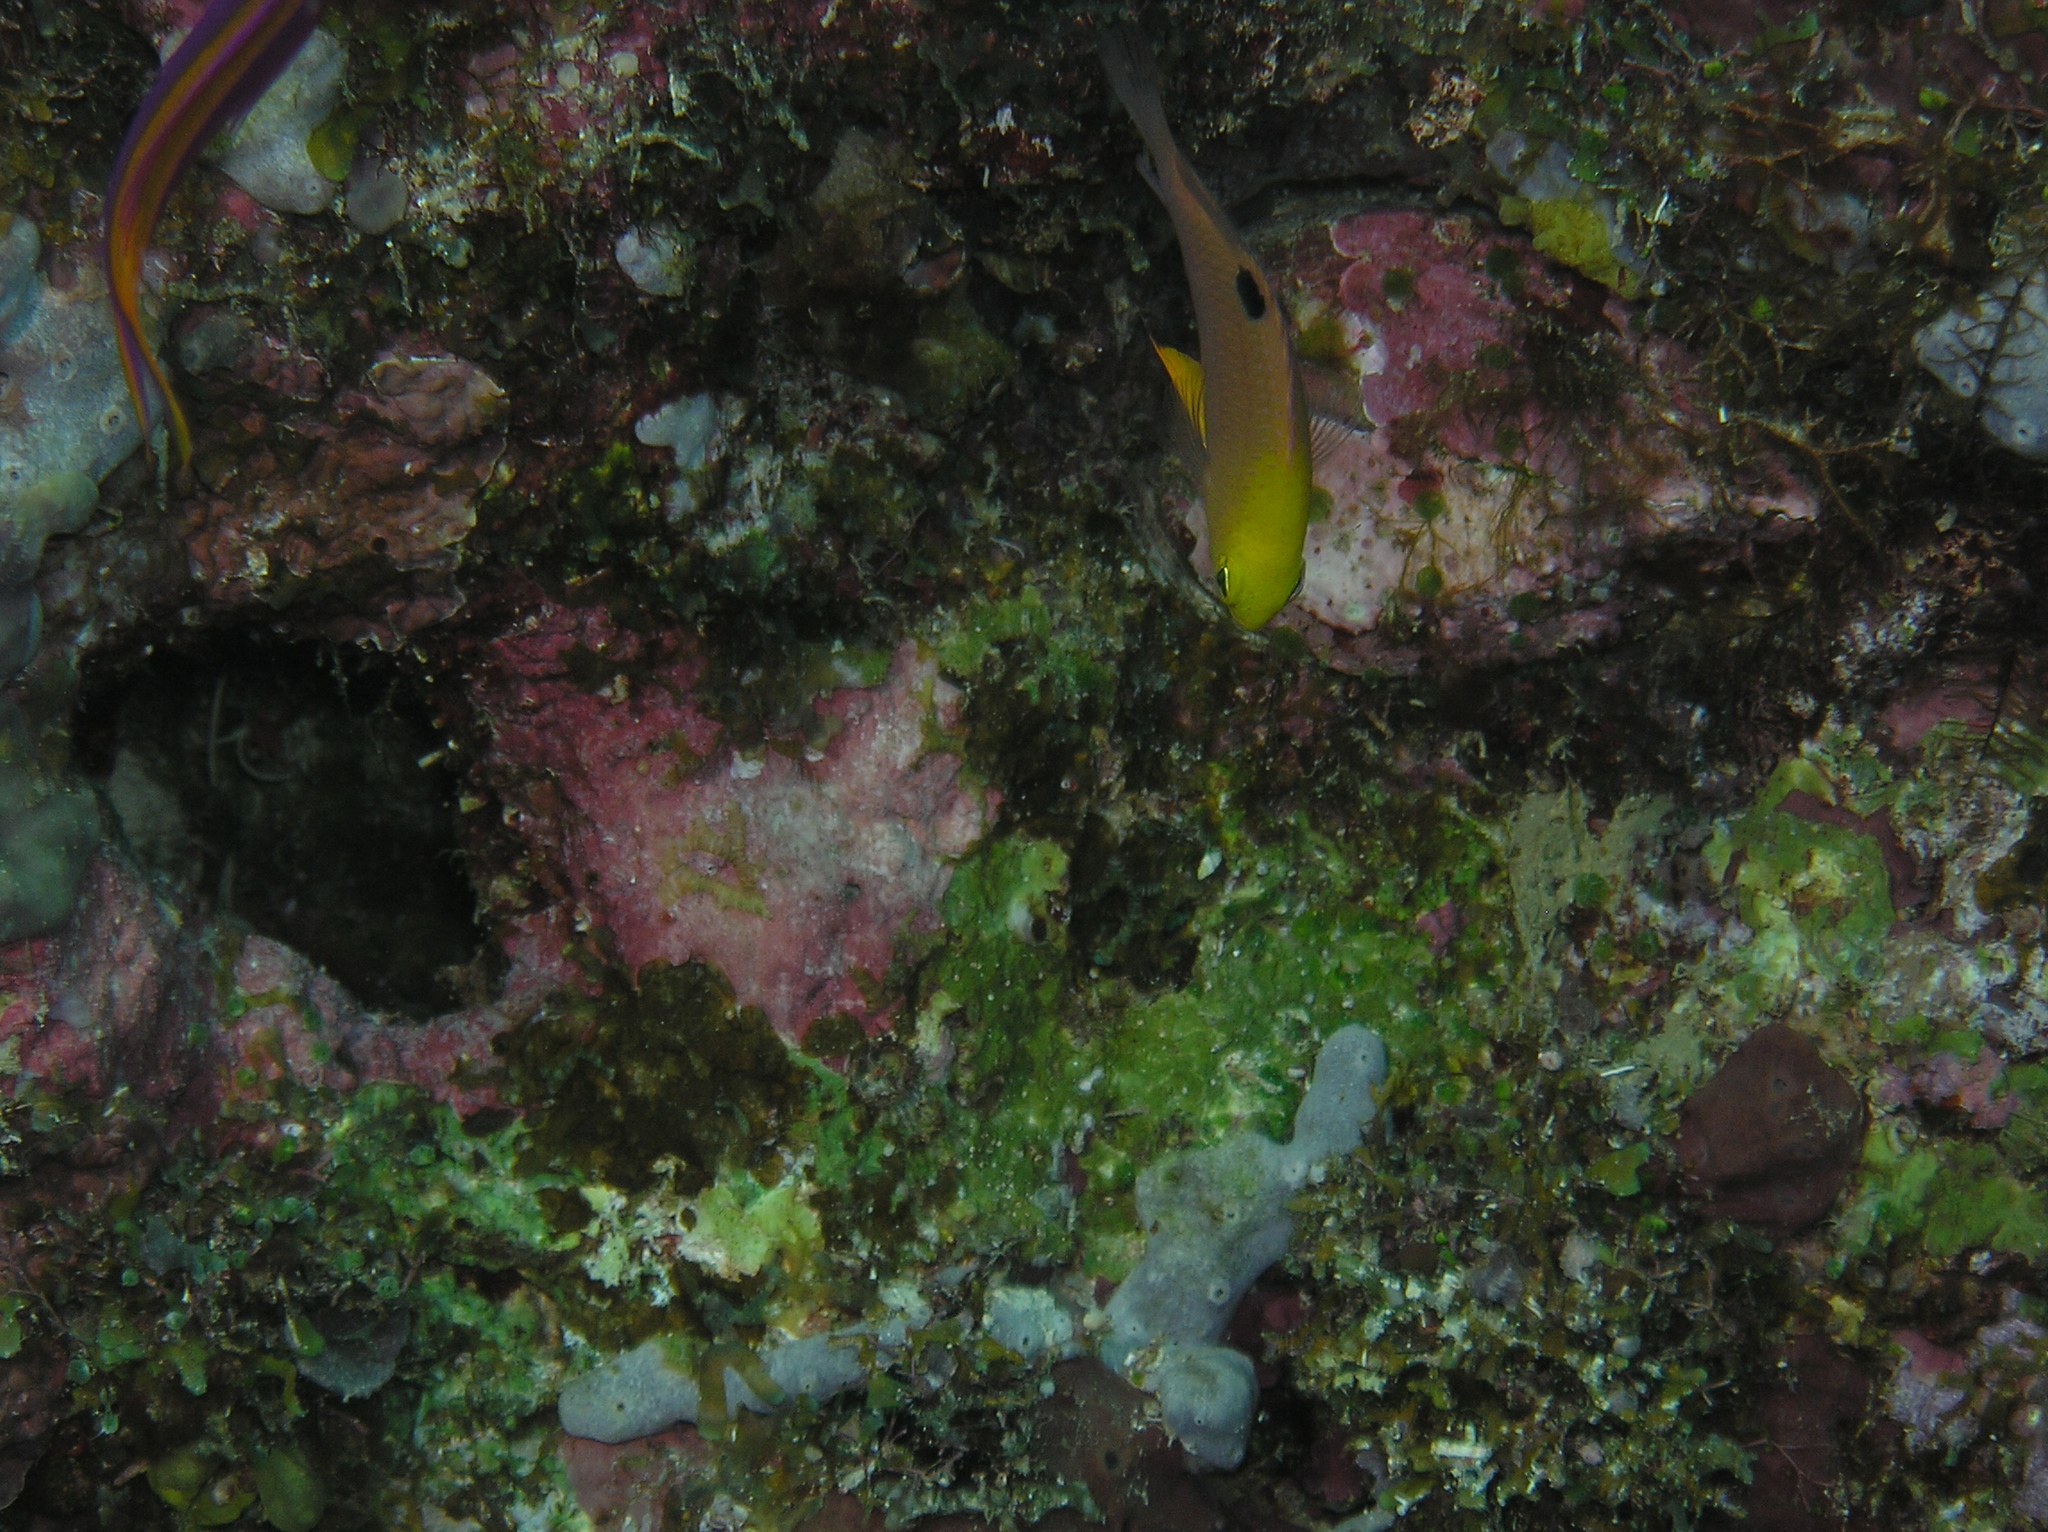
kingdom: Animalia
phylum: Chordata
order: Perciformes
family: Pomacentridae
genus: Chrysiptera
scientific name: Chrysiptera talboti
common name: Talbot's demoiselle
